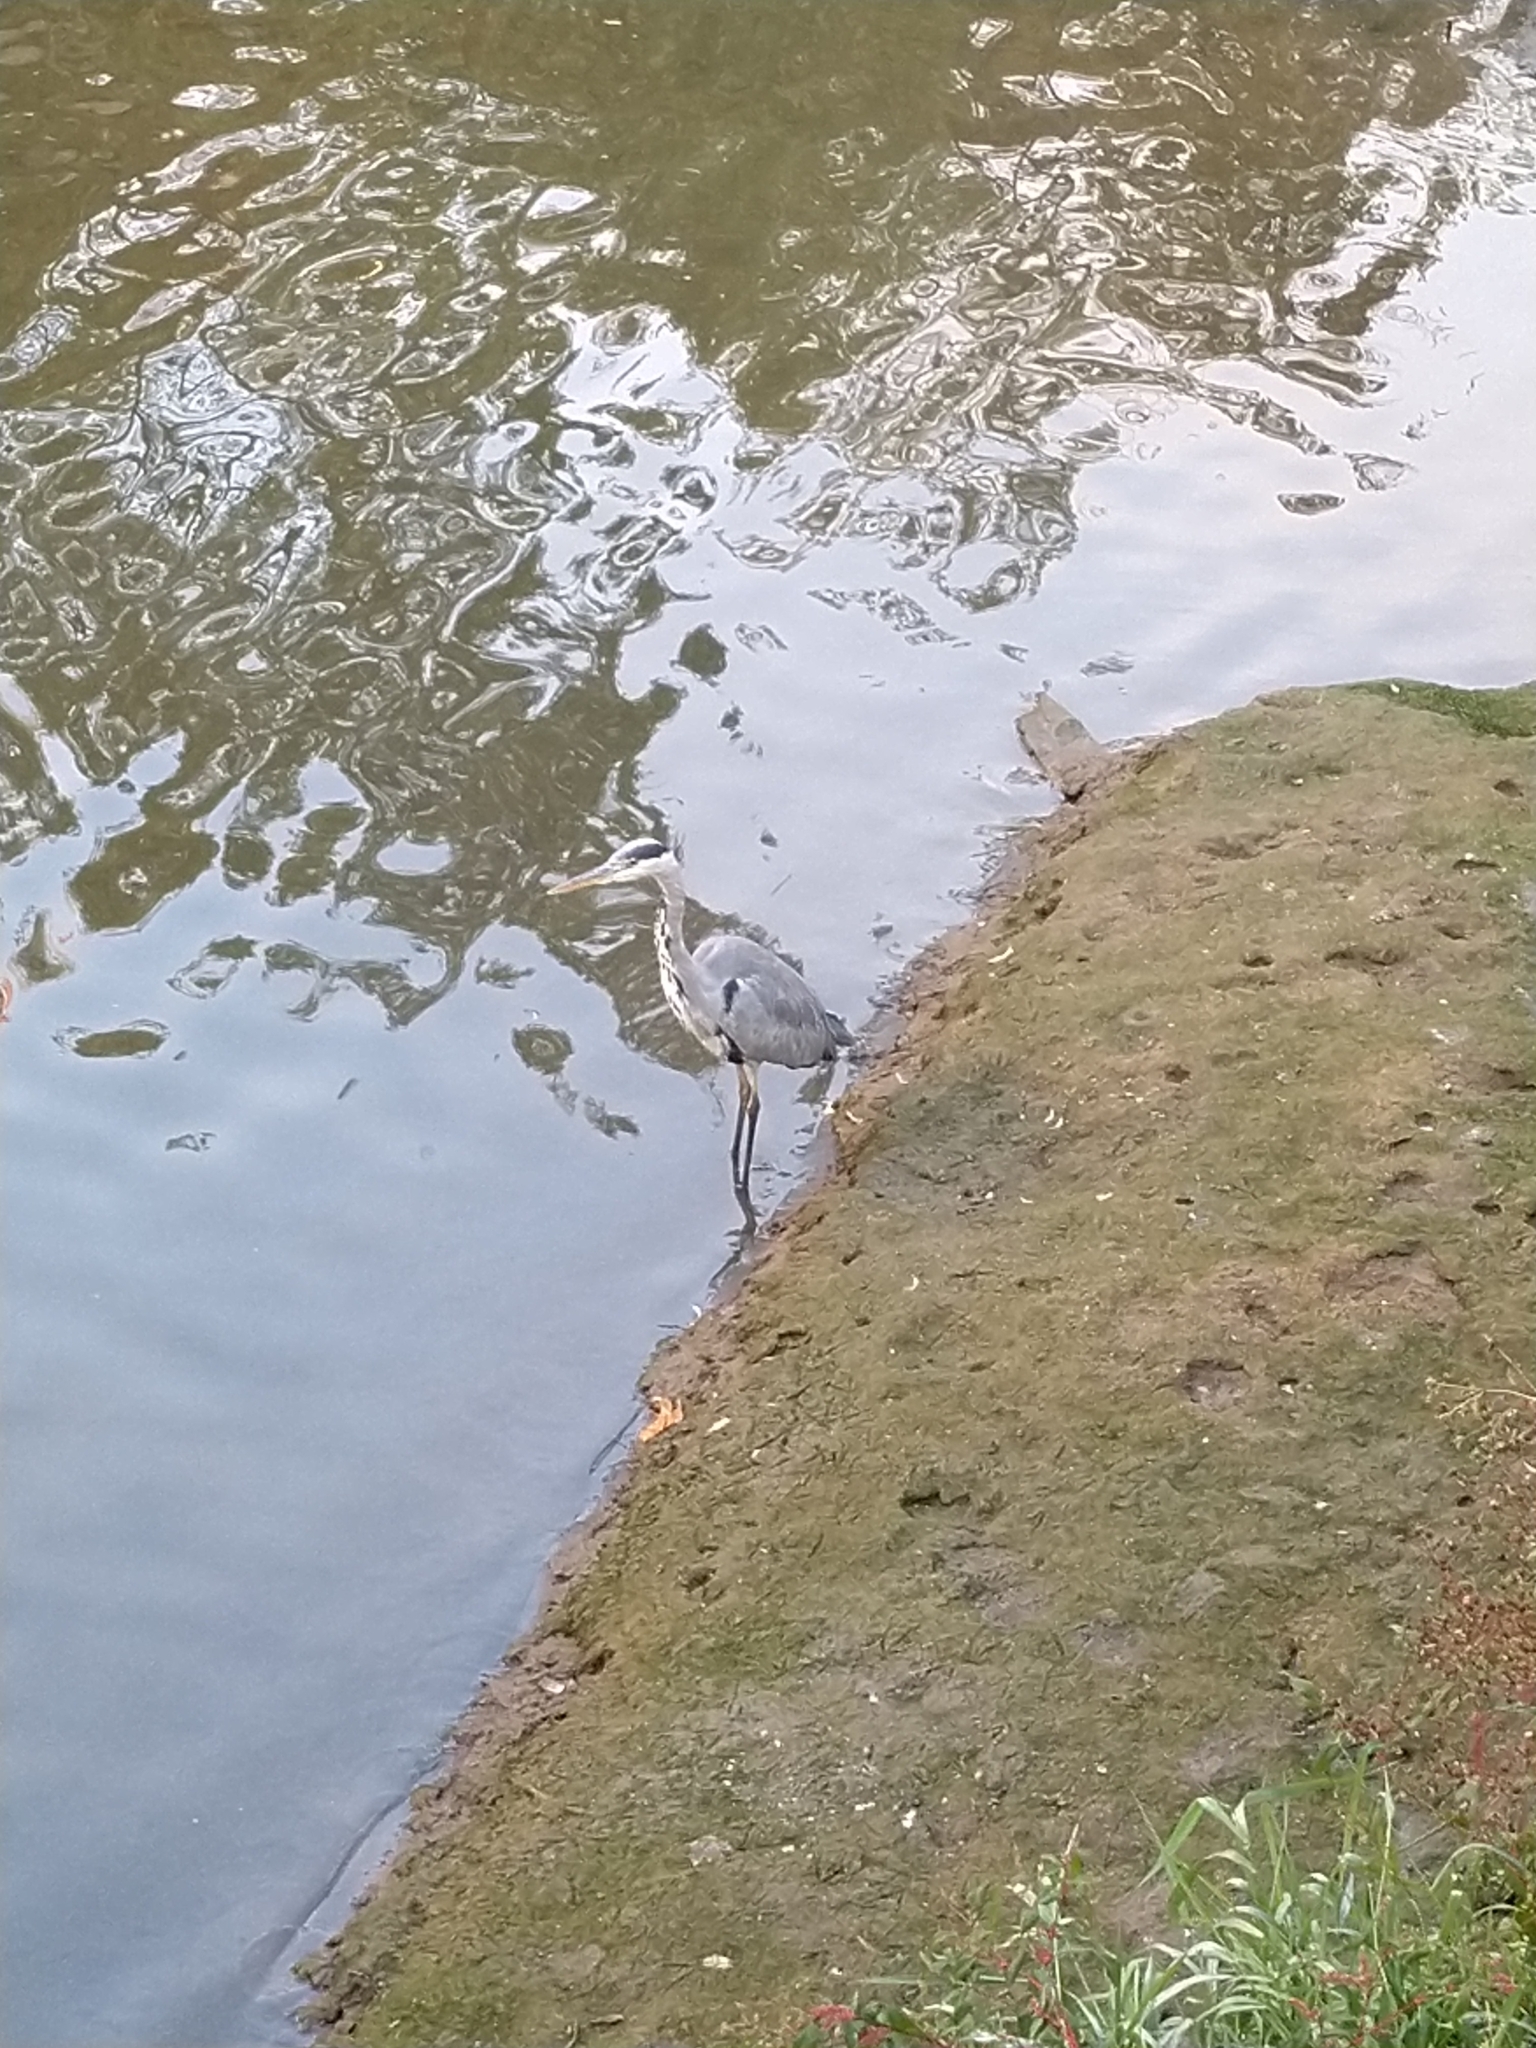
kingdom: Animalia
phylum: Chordata
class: Aves
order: Pelecaniformes
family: Ardeidae
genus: Ardea
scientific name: Ardea cinerea
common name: Grey heron
